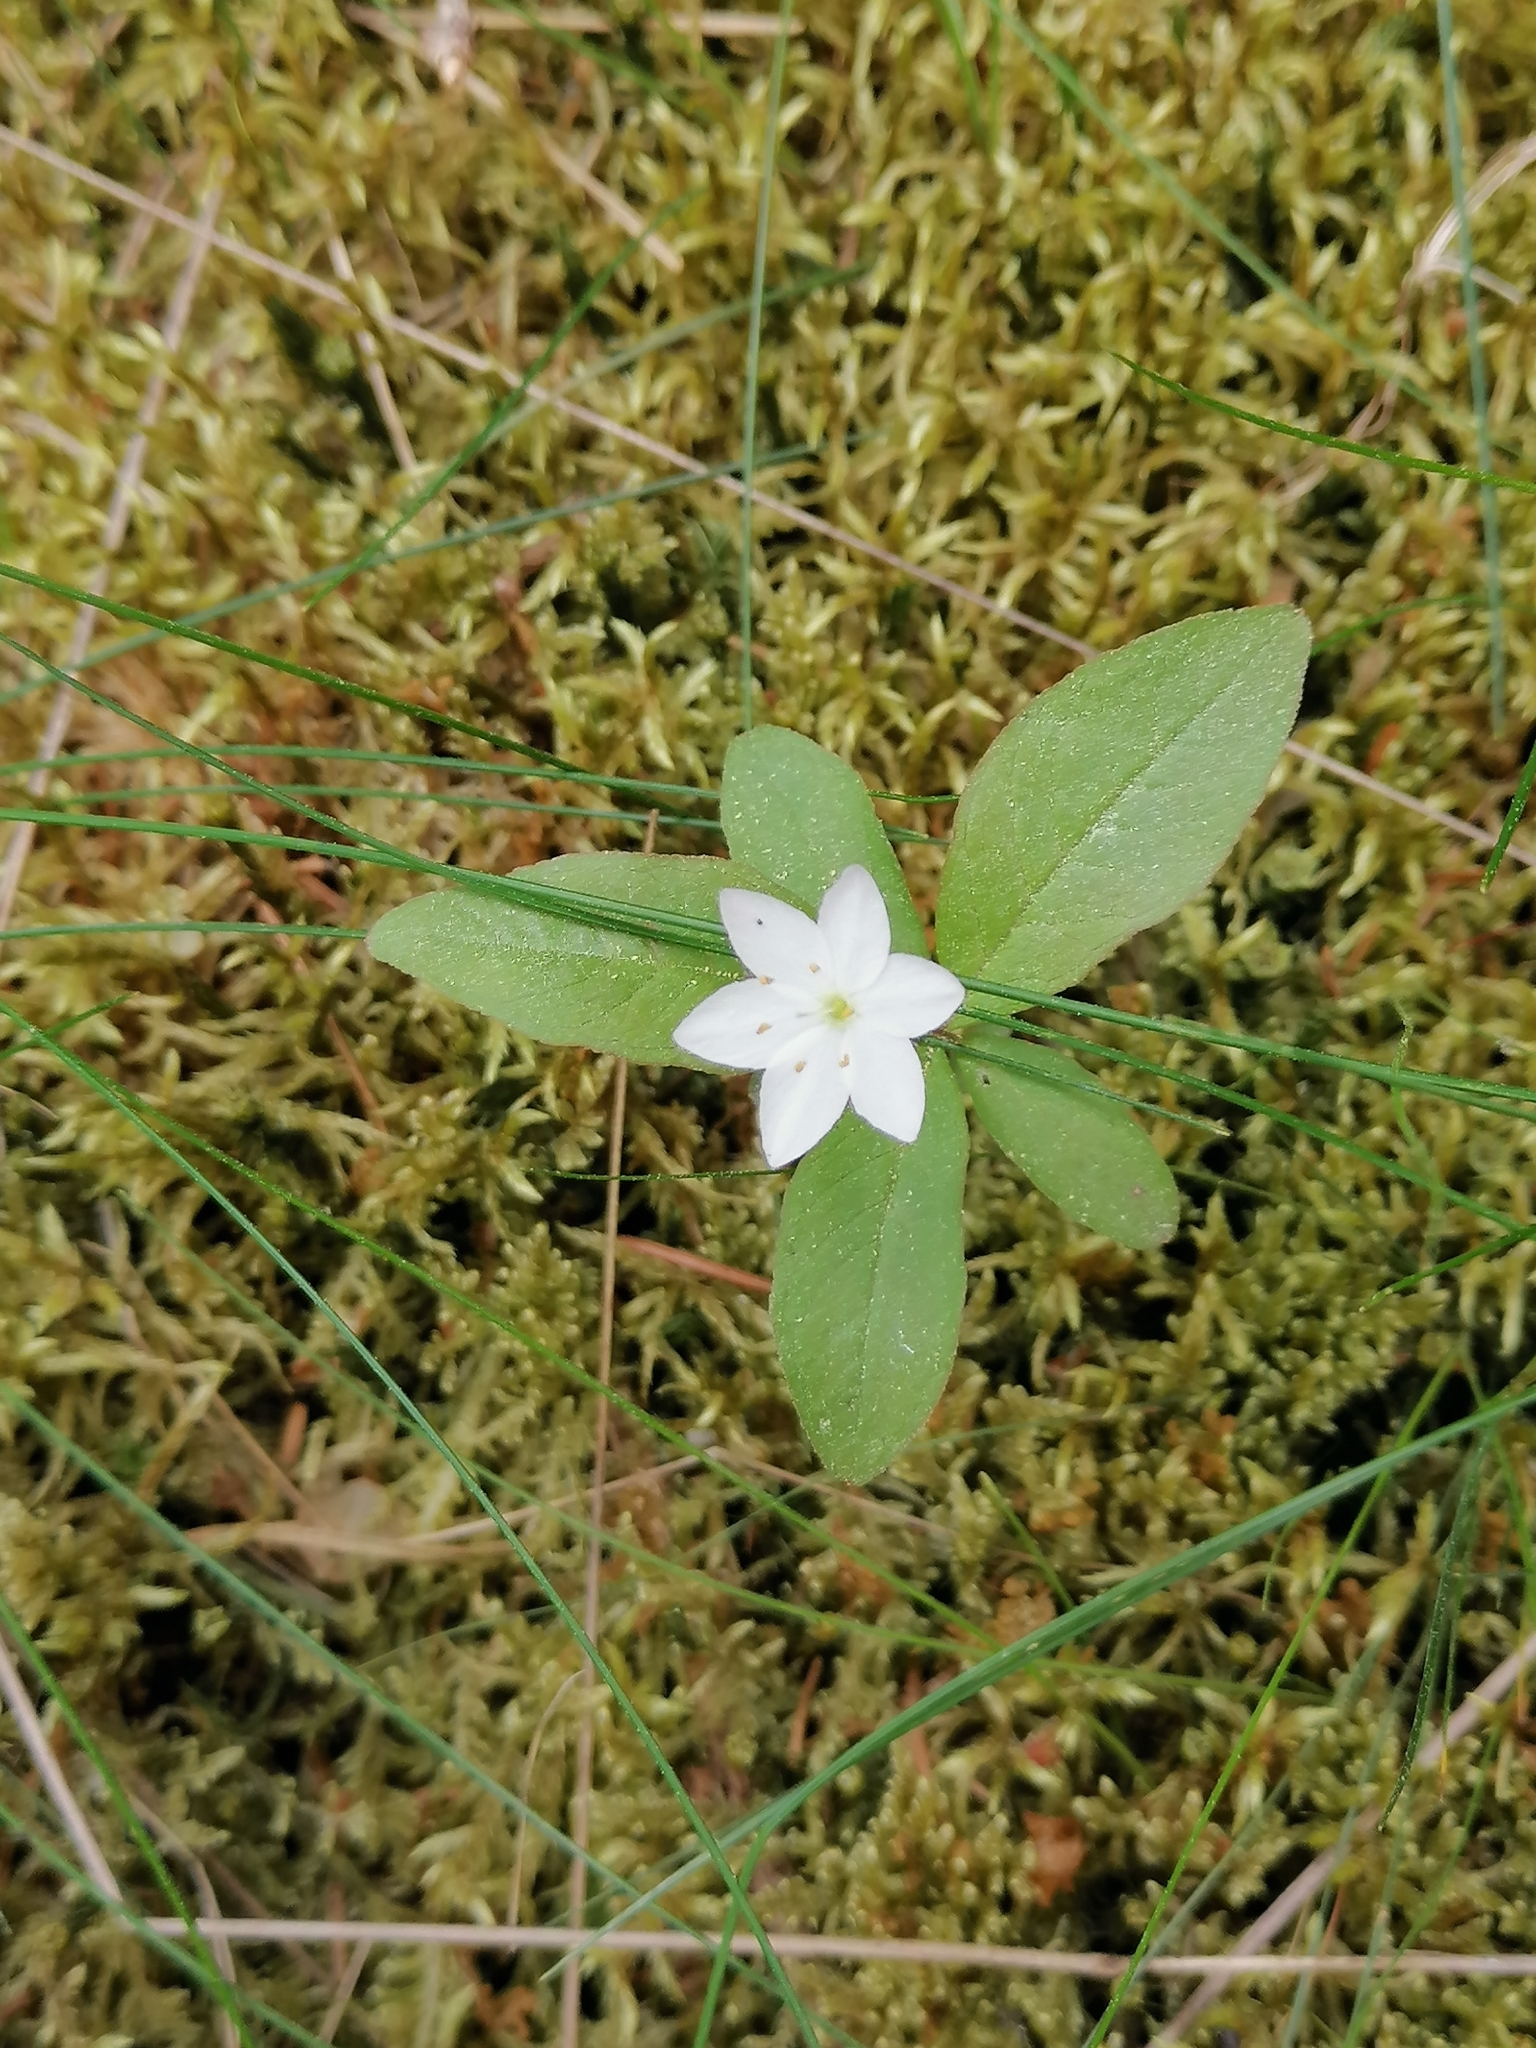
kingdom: Plantae
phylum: Tracheophyta
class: Magnoliopsida
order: Ericales
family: Primulaceae
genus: Lysimachia
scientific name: Lysimachia europaea
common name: Arctic starflower
